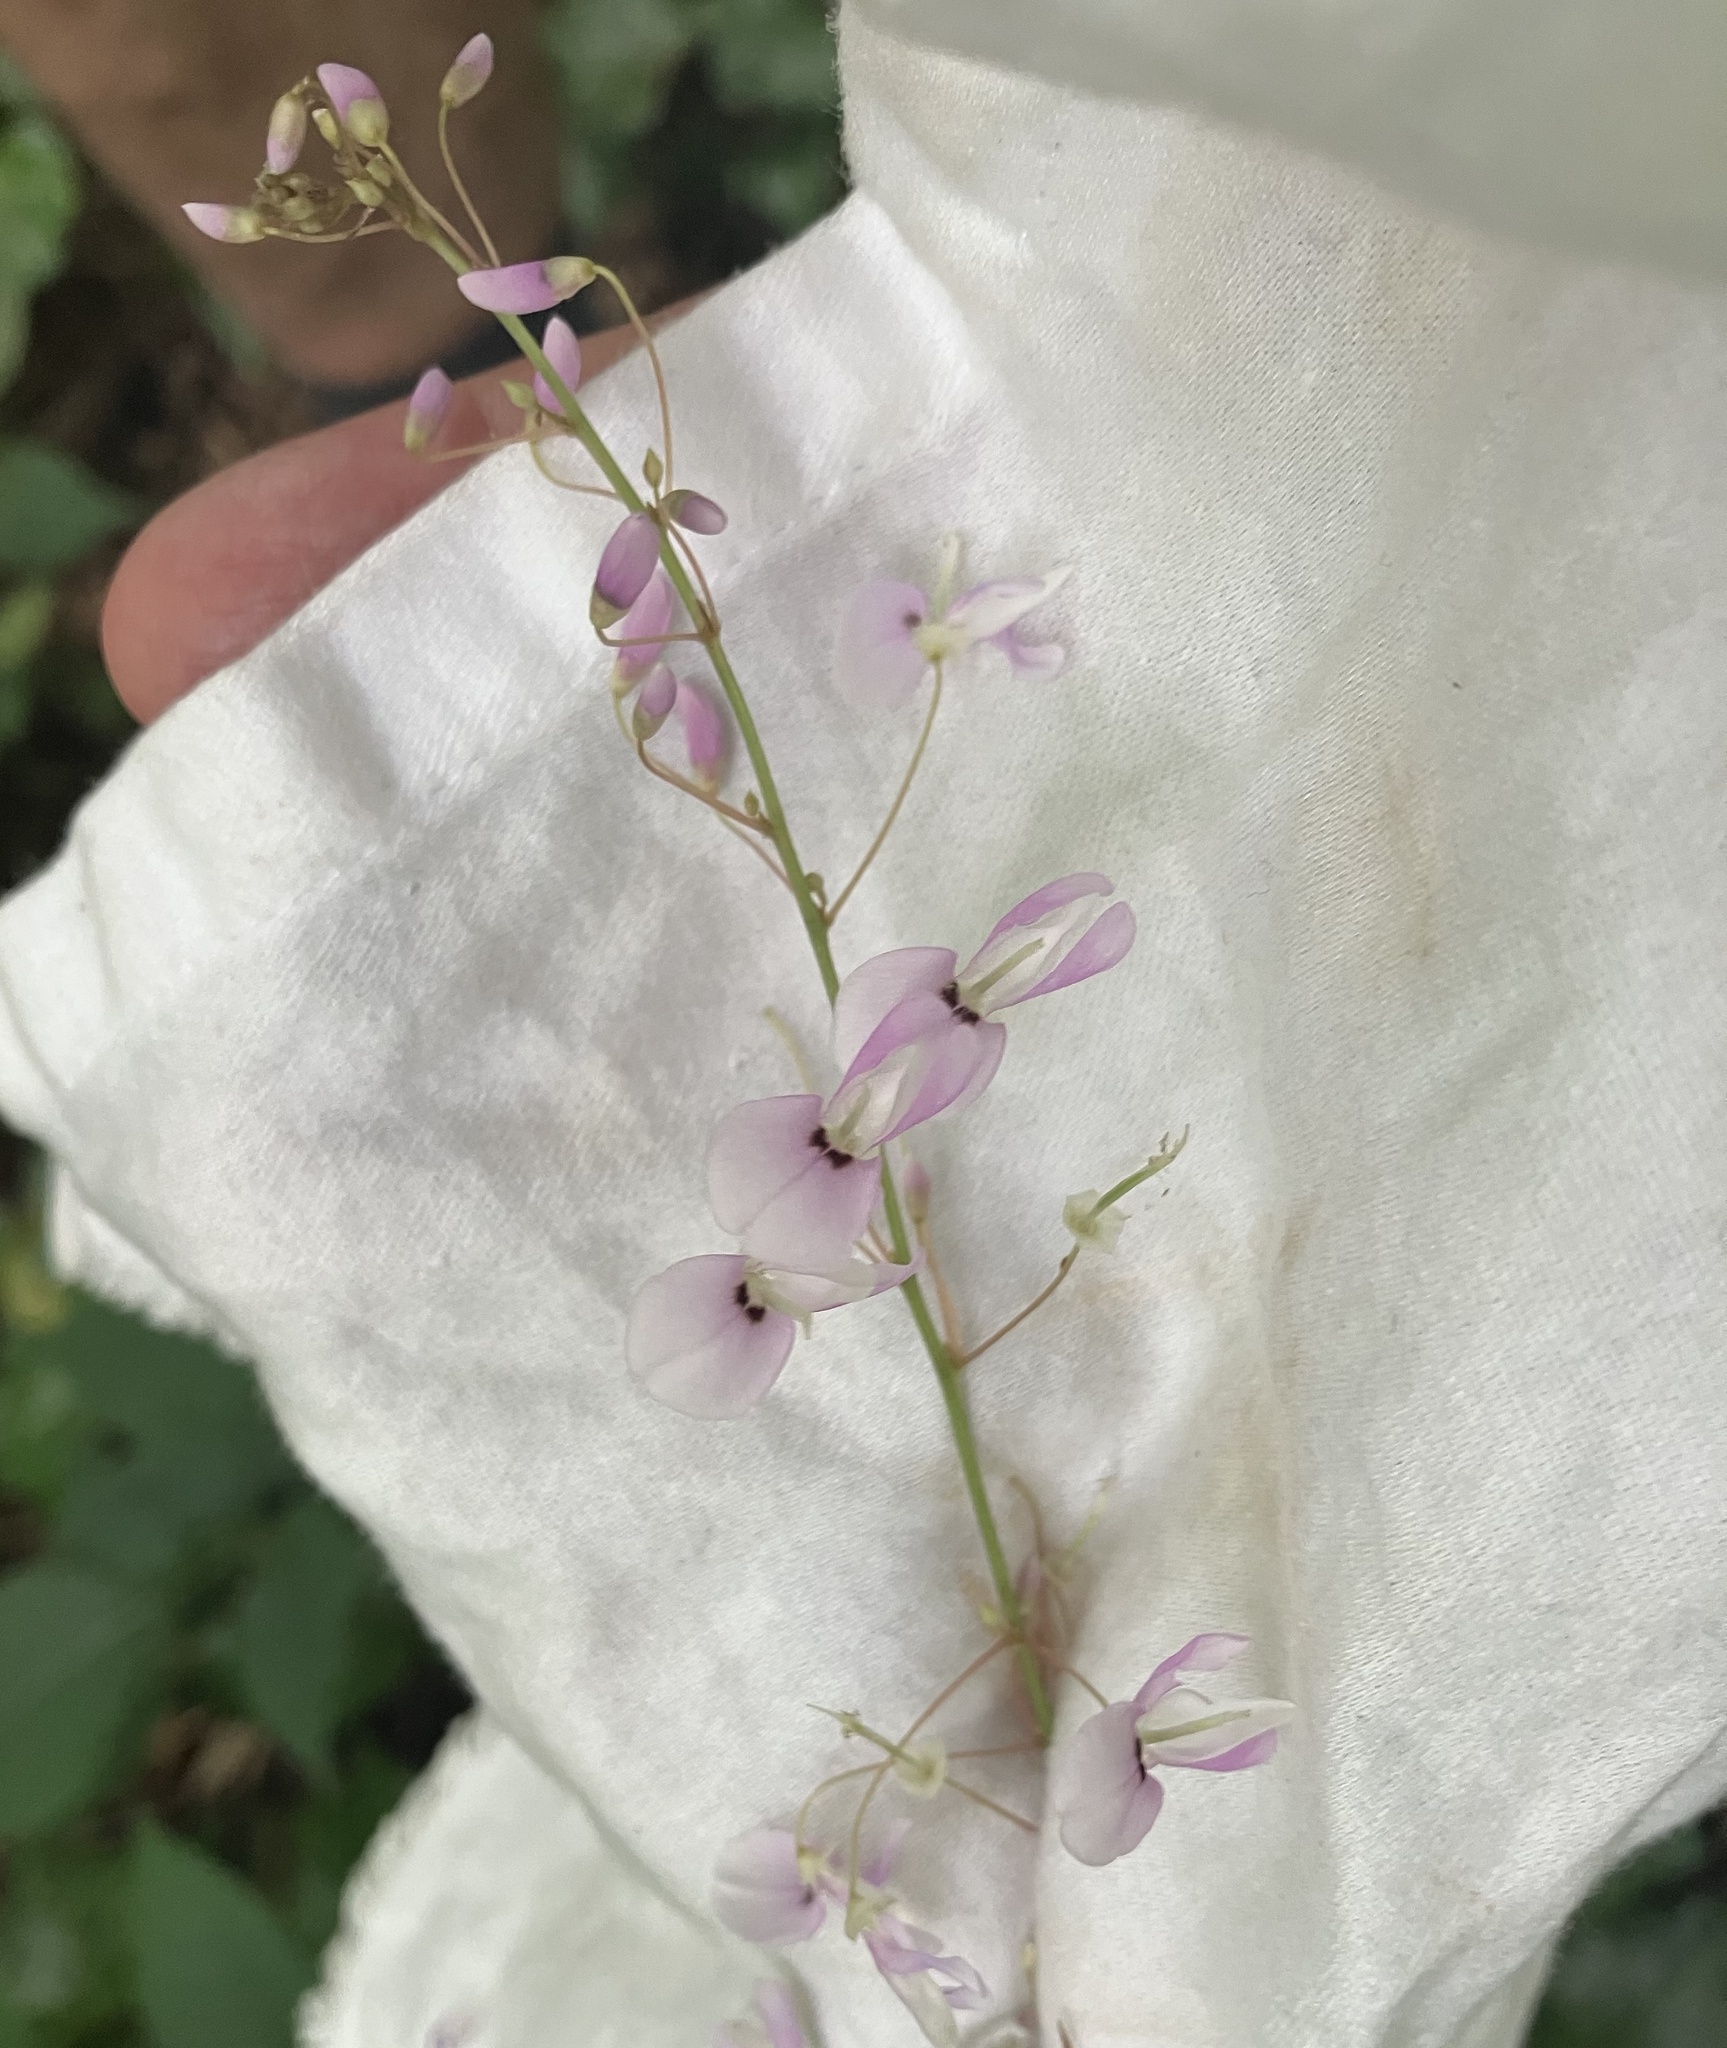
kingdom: Plantae
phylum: Tracheophyta
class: Magnoliopsida
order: Fabales
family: Fabaceae
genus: Hylodesmum
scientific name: Hylodesmum nudiflorum
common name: Bare-stemmed tick-trefoil
